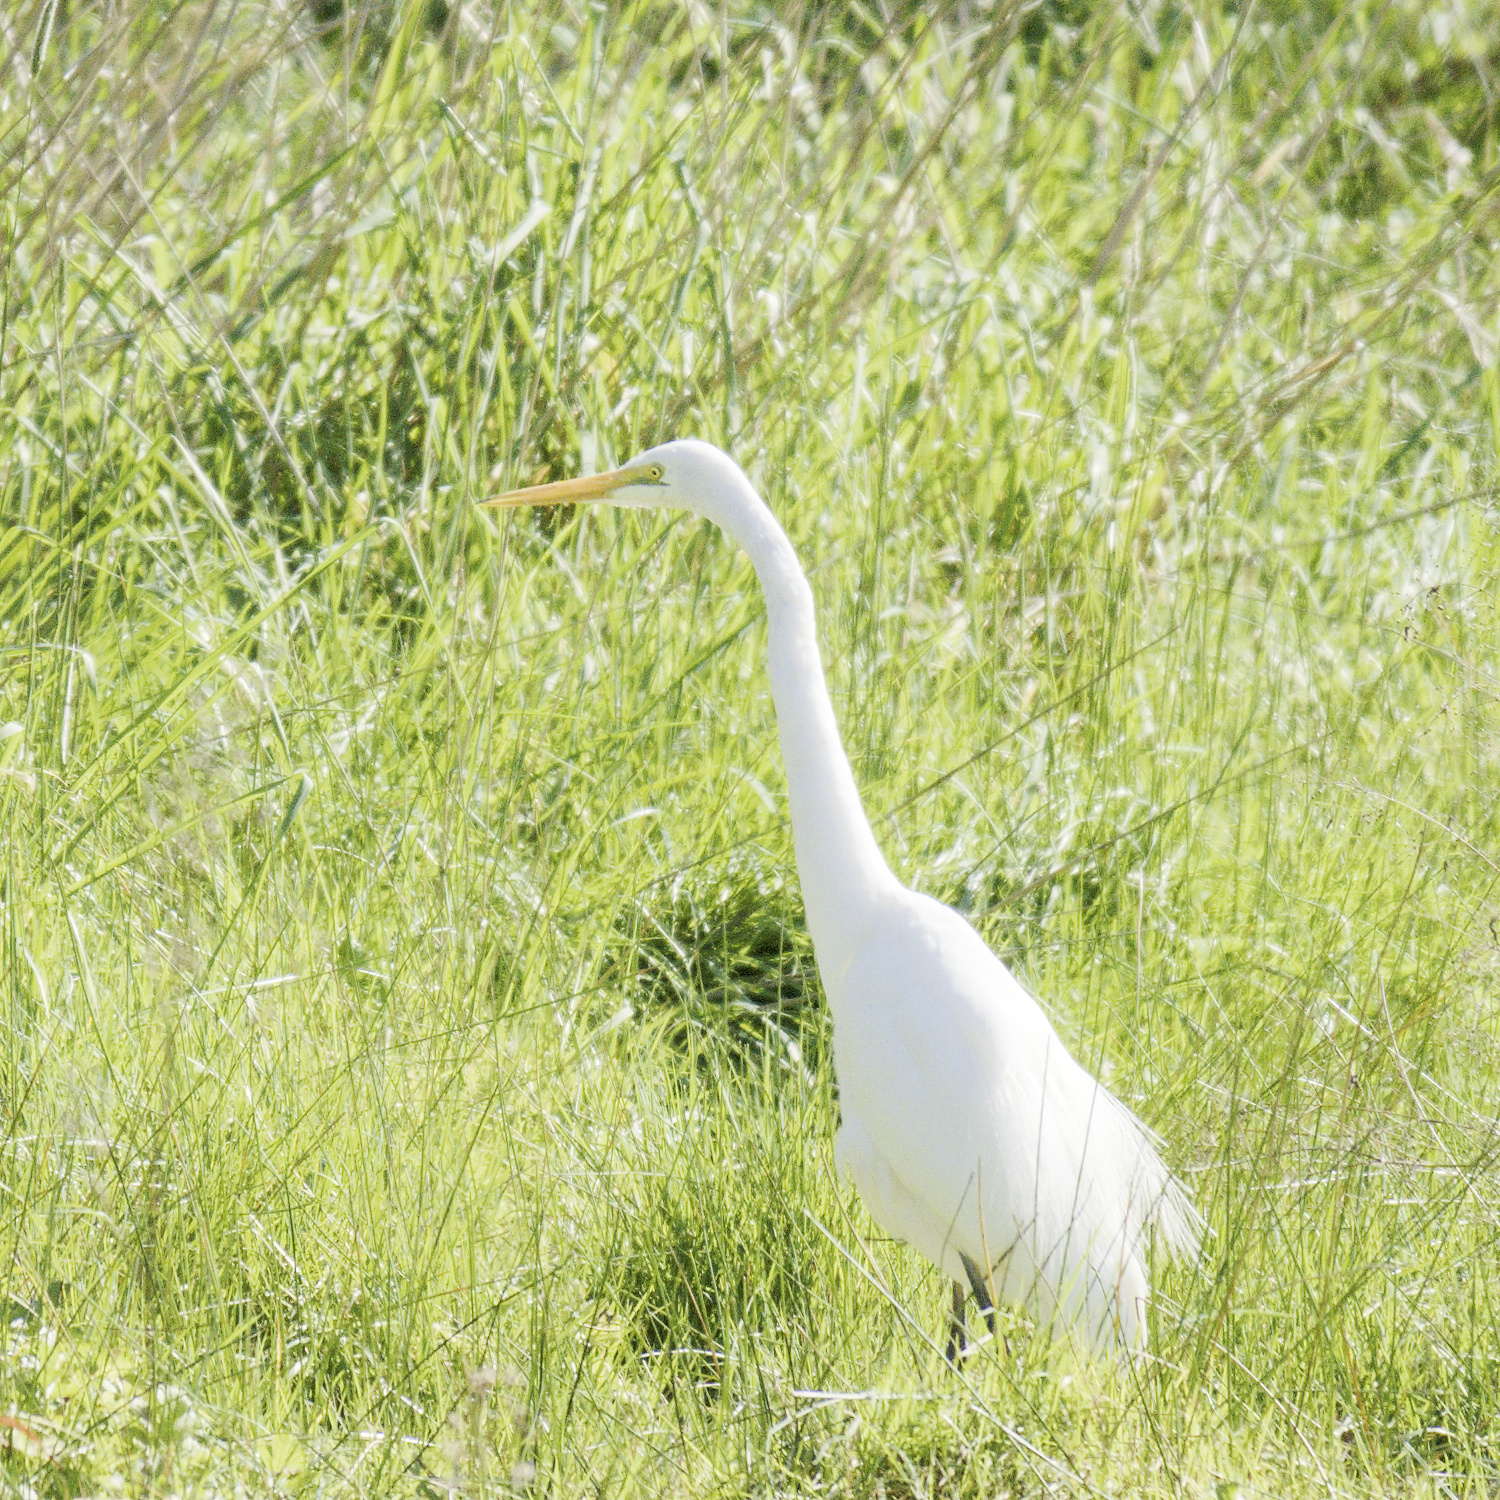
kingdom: Animalia
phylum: Chordata
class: Aves
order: Pelecaniformes
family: Ardeidae
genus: Ardea
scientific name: Ardea alba
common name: Great egret
